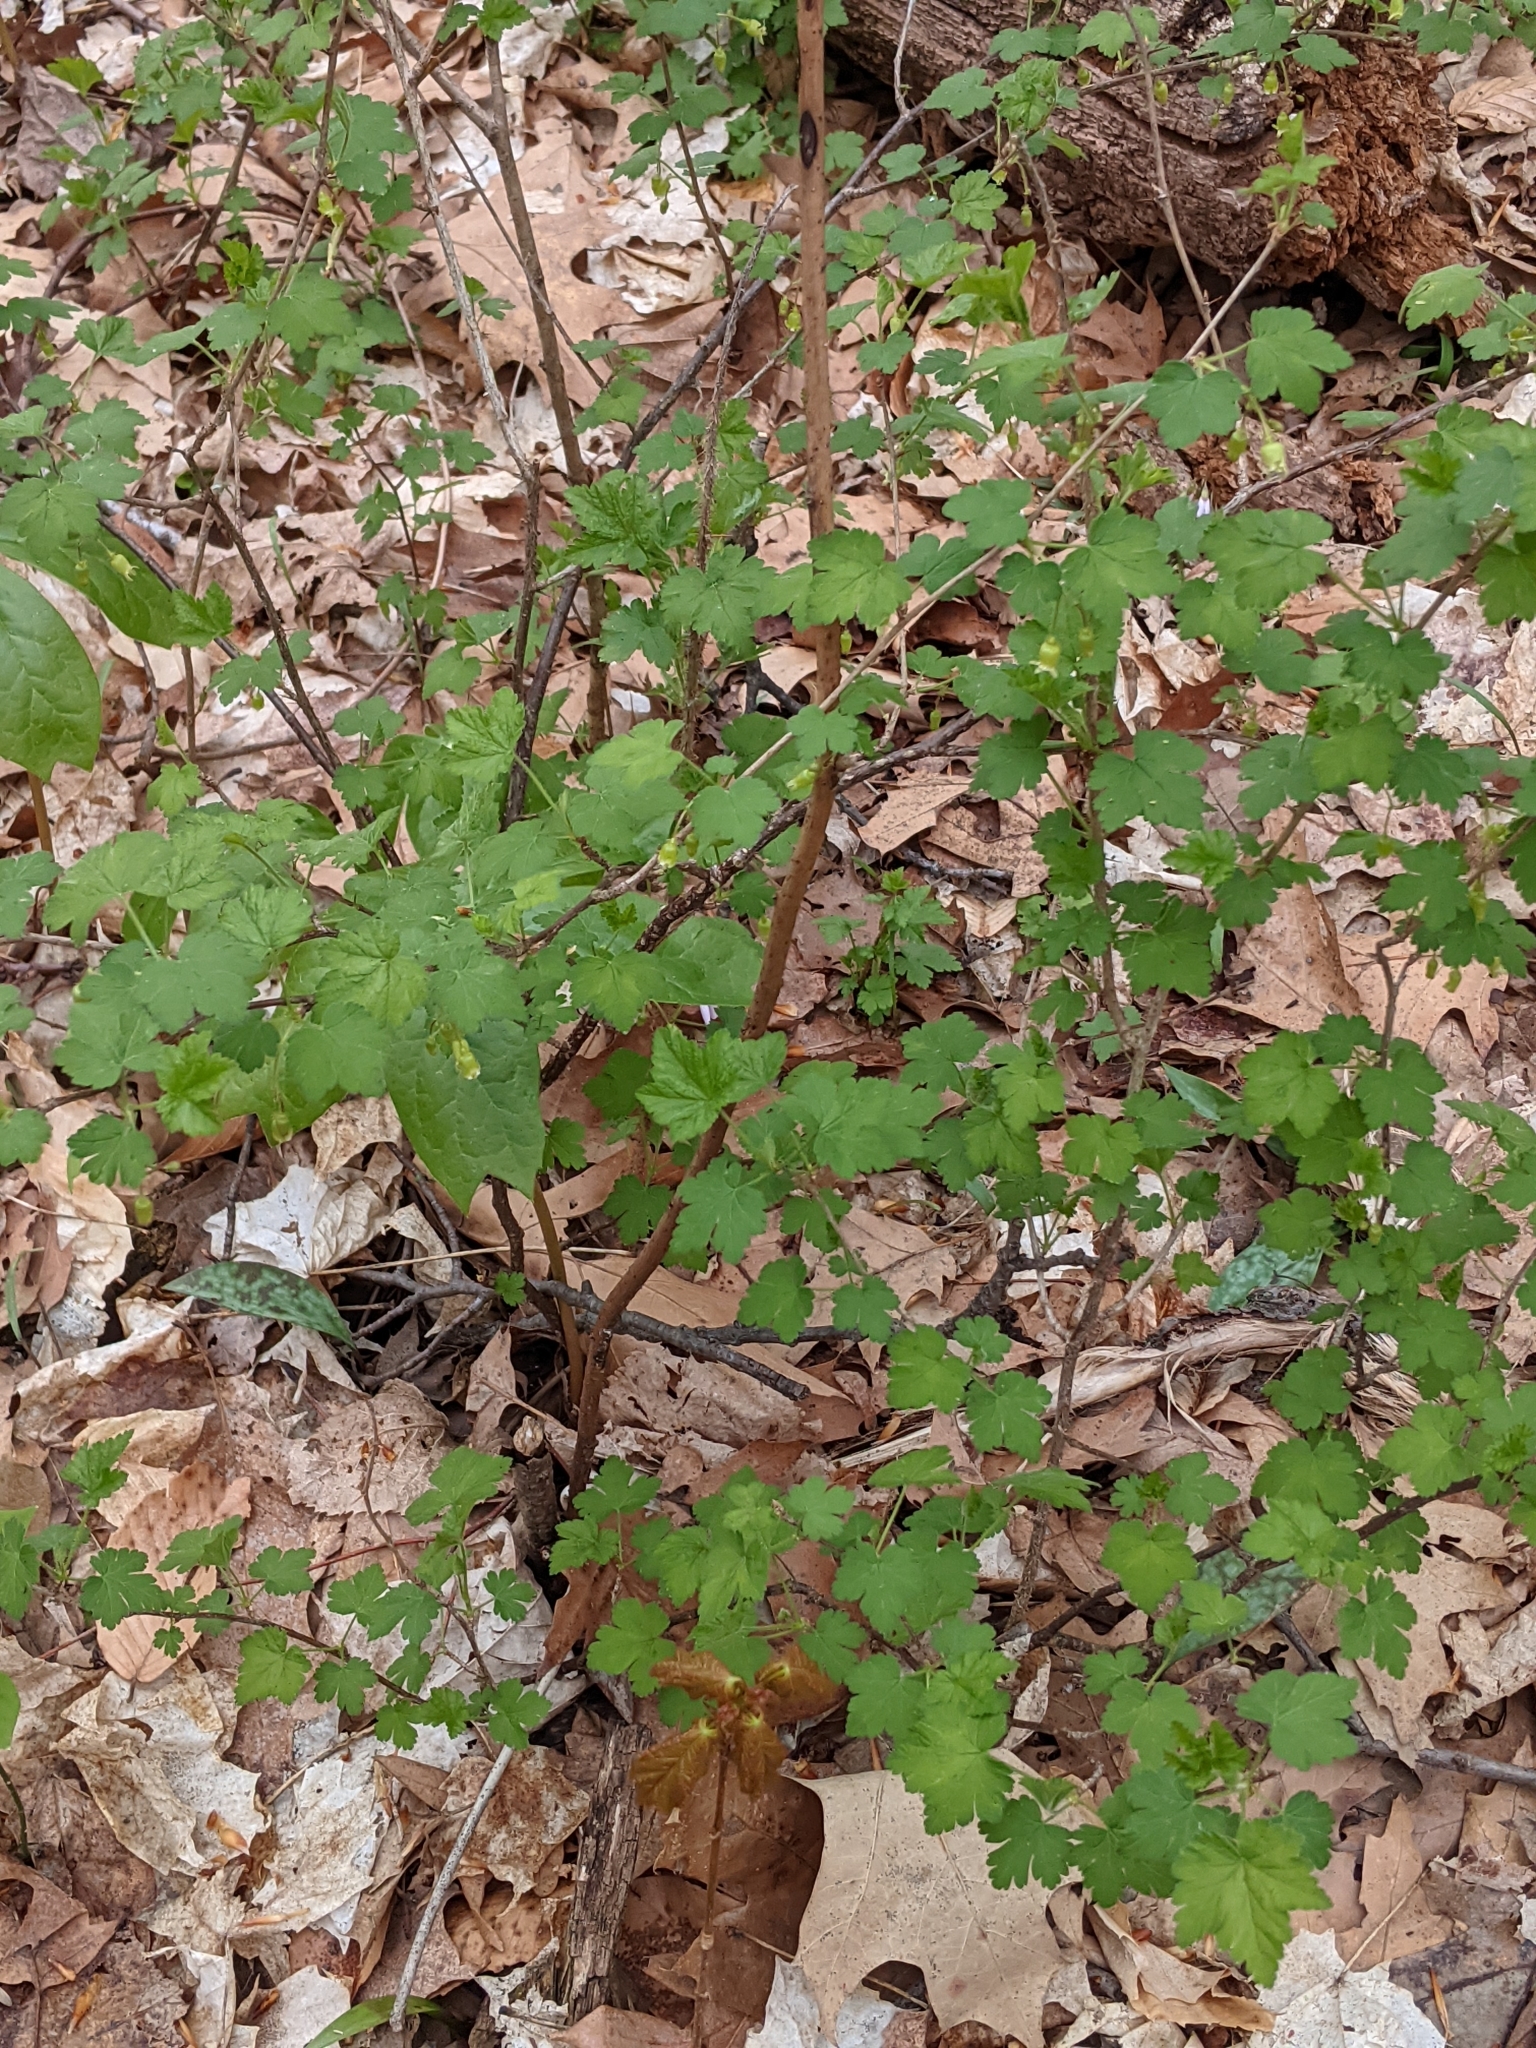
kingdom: Plantae
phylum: Tracheophyta
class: Magnoliopsida
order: Saxifragales
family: Grossulariaceae
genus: Ribes
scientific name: Ribes cynosbati
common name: American gooseberry
